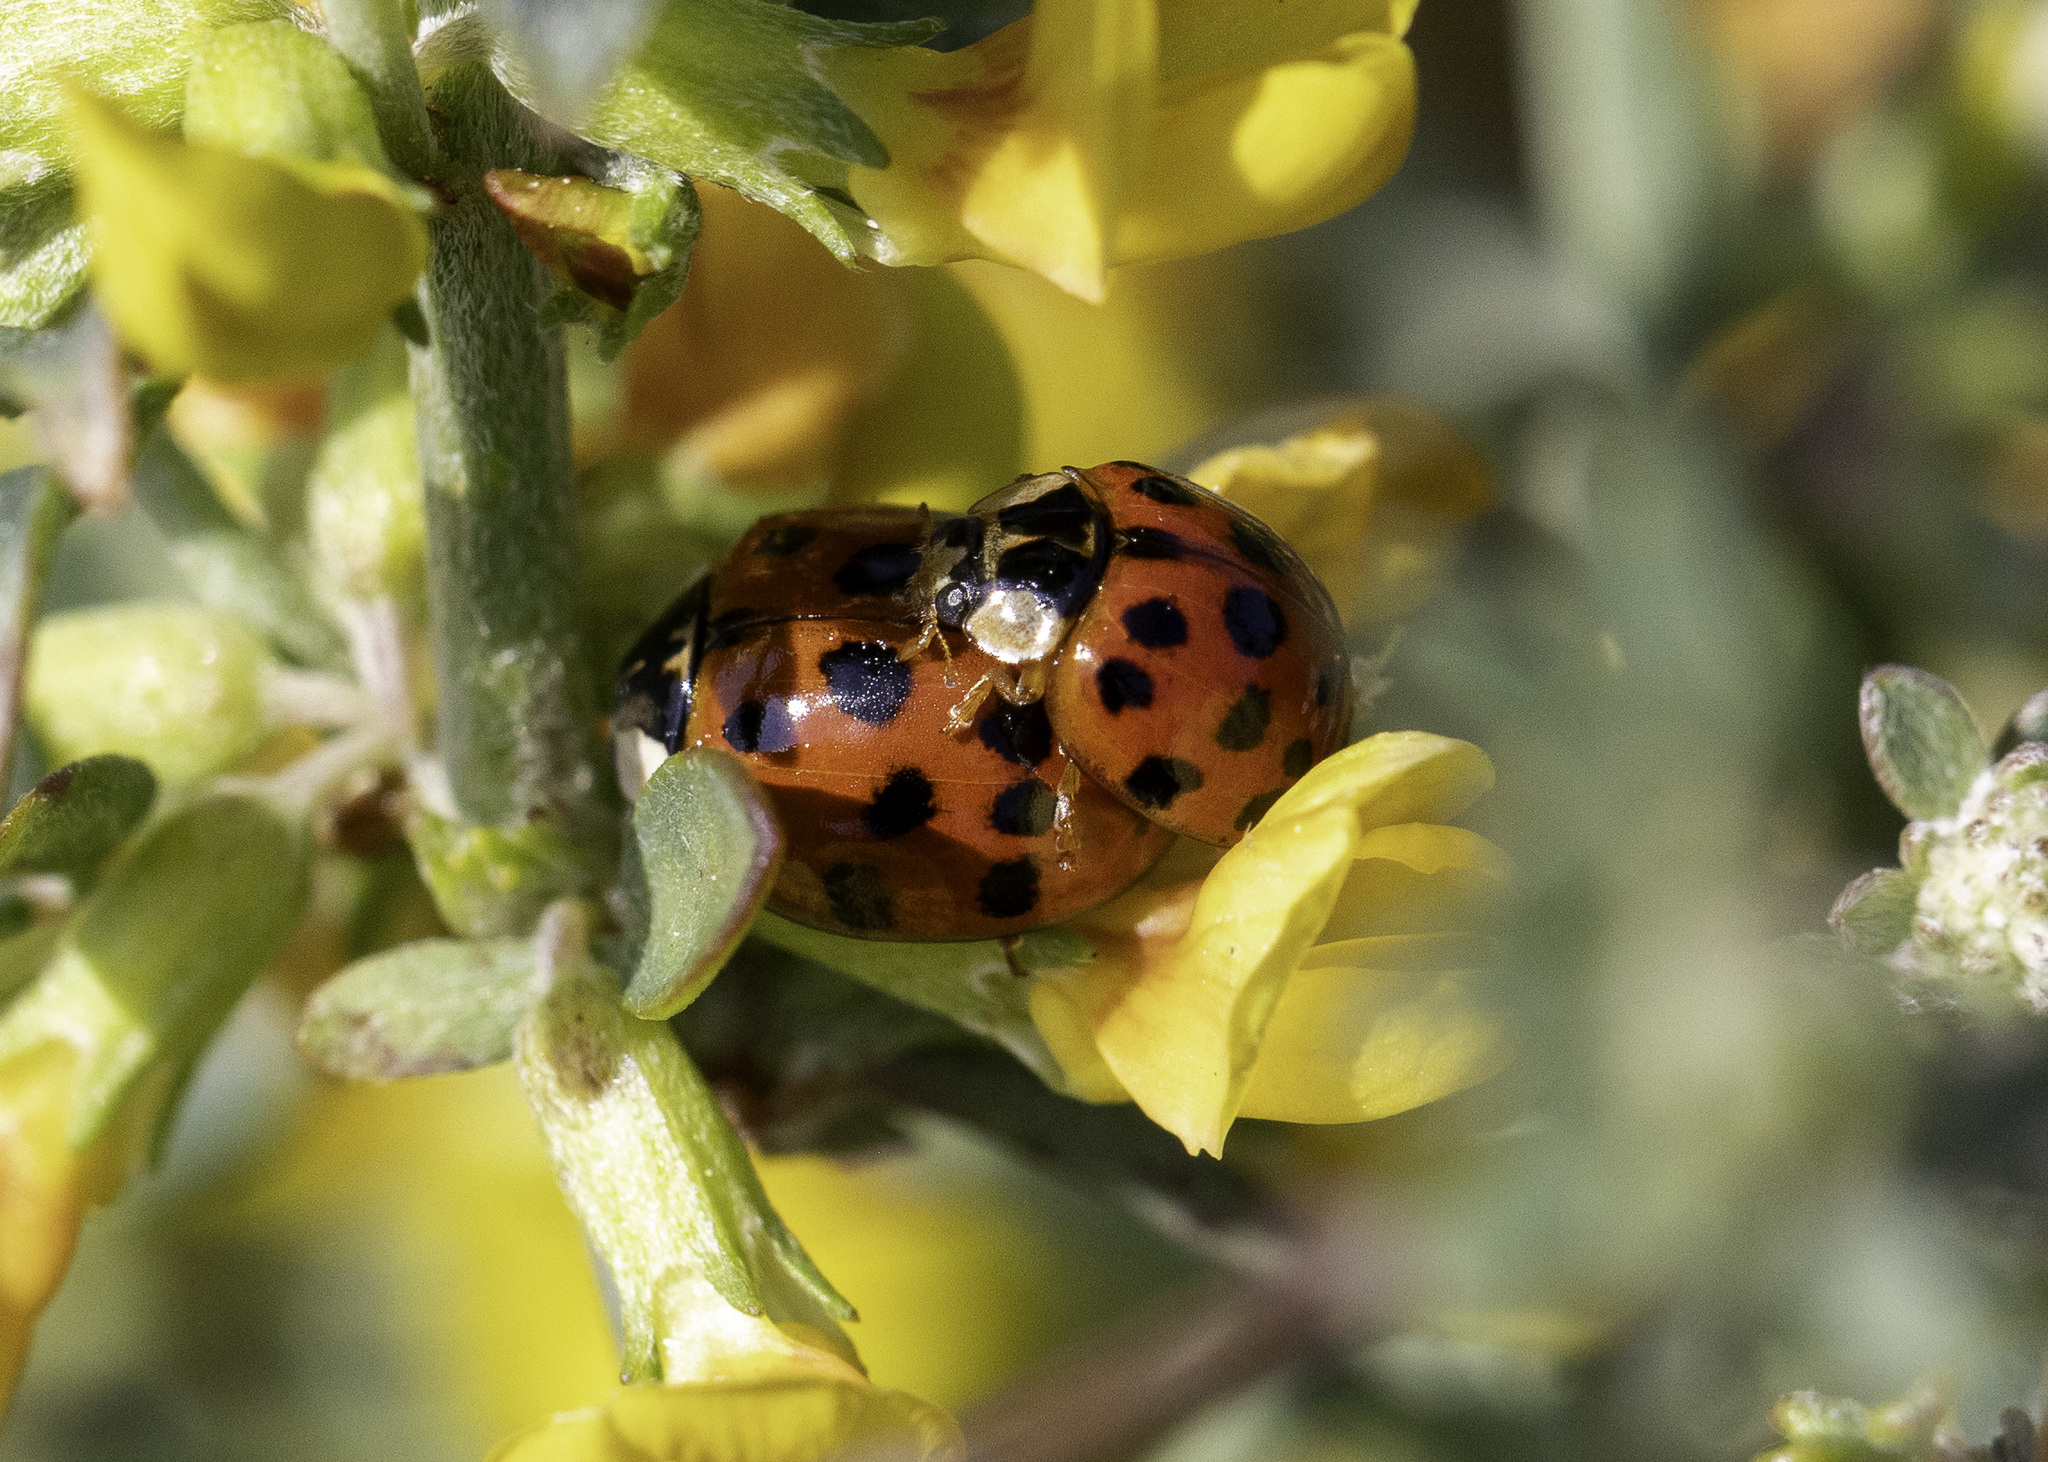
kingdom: Animalia
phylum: Arthropoda
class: Insecta
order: Coleoptera
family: Coccinellidae
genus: Harmonia
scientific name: Harmonia axyridis
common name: Harlequin ladybird
